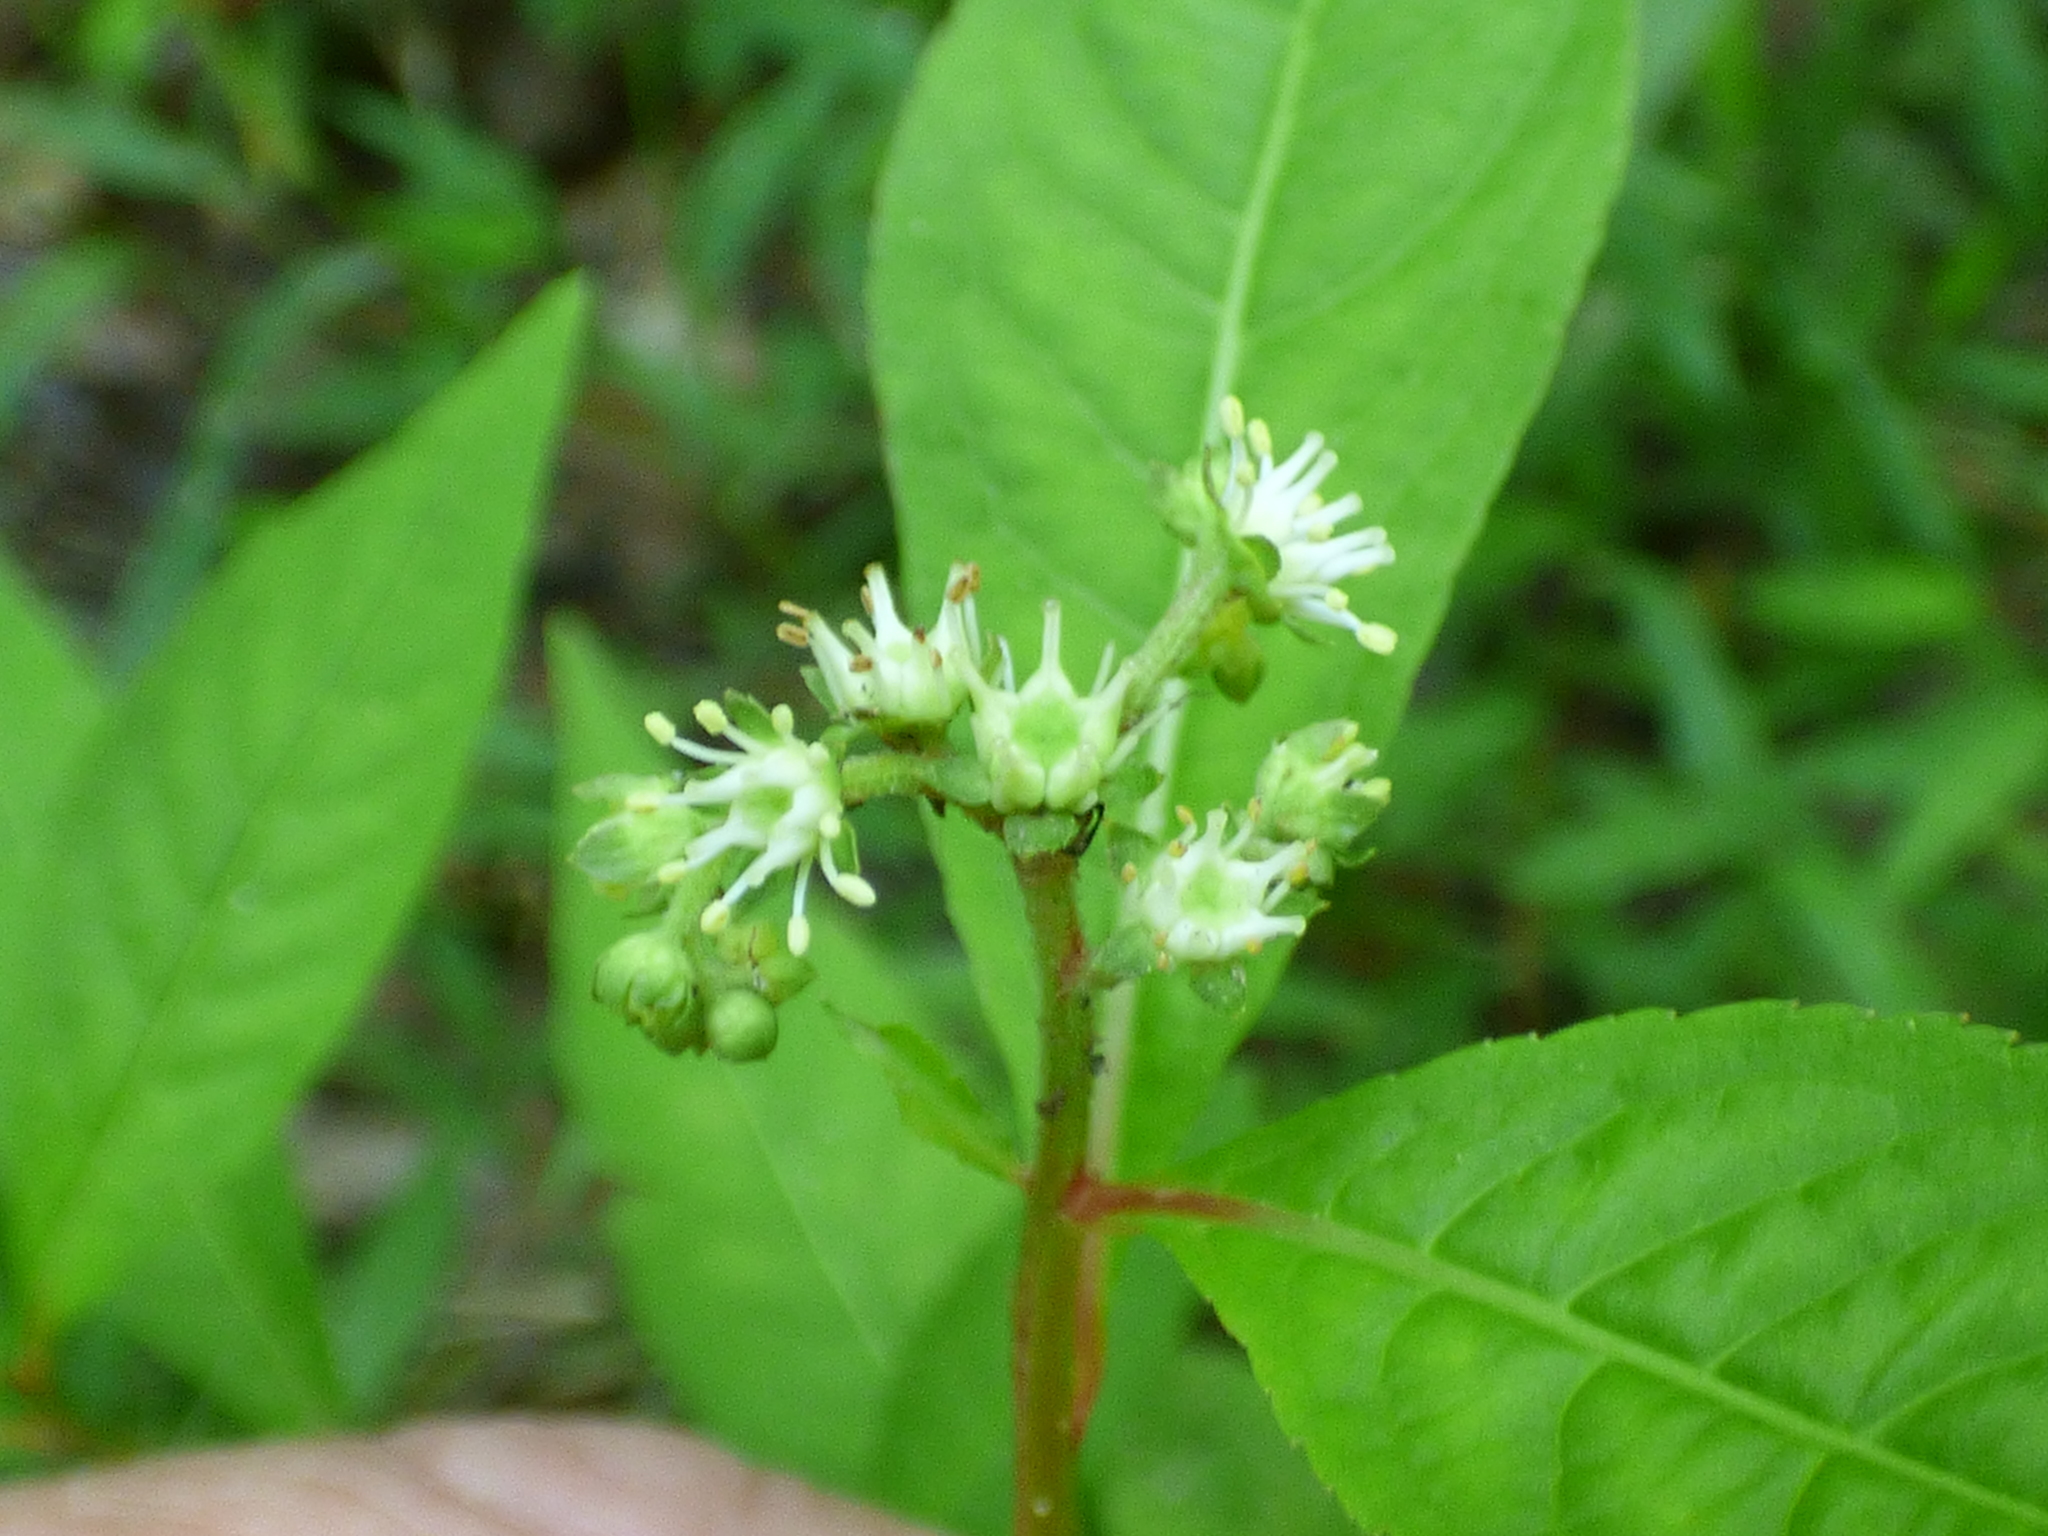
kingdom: Plantae
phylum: Tracheophyta
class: Magnoliopsida
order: Saxifragales
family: Penthoraceae
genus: Penthorum
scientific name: Penthorum sedoides
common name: Ditch stonecrop
